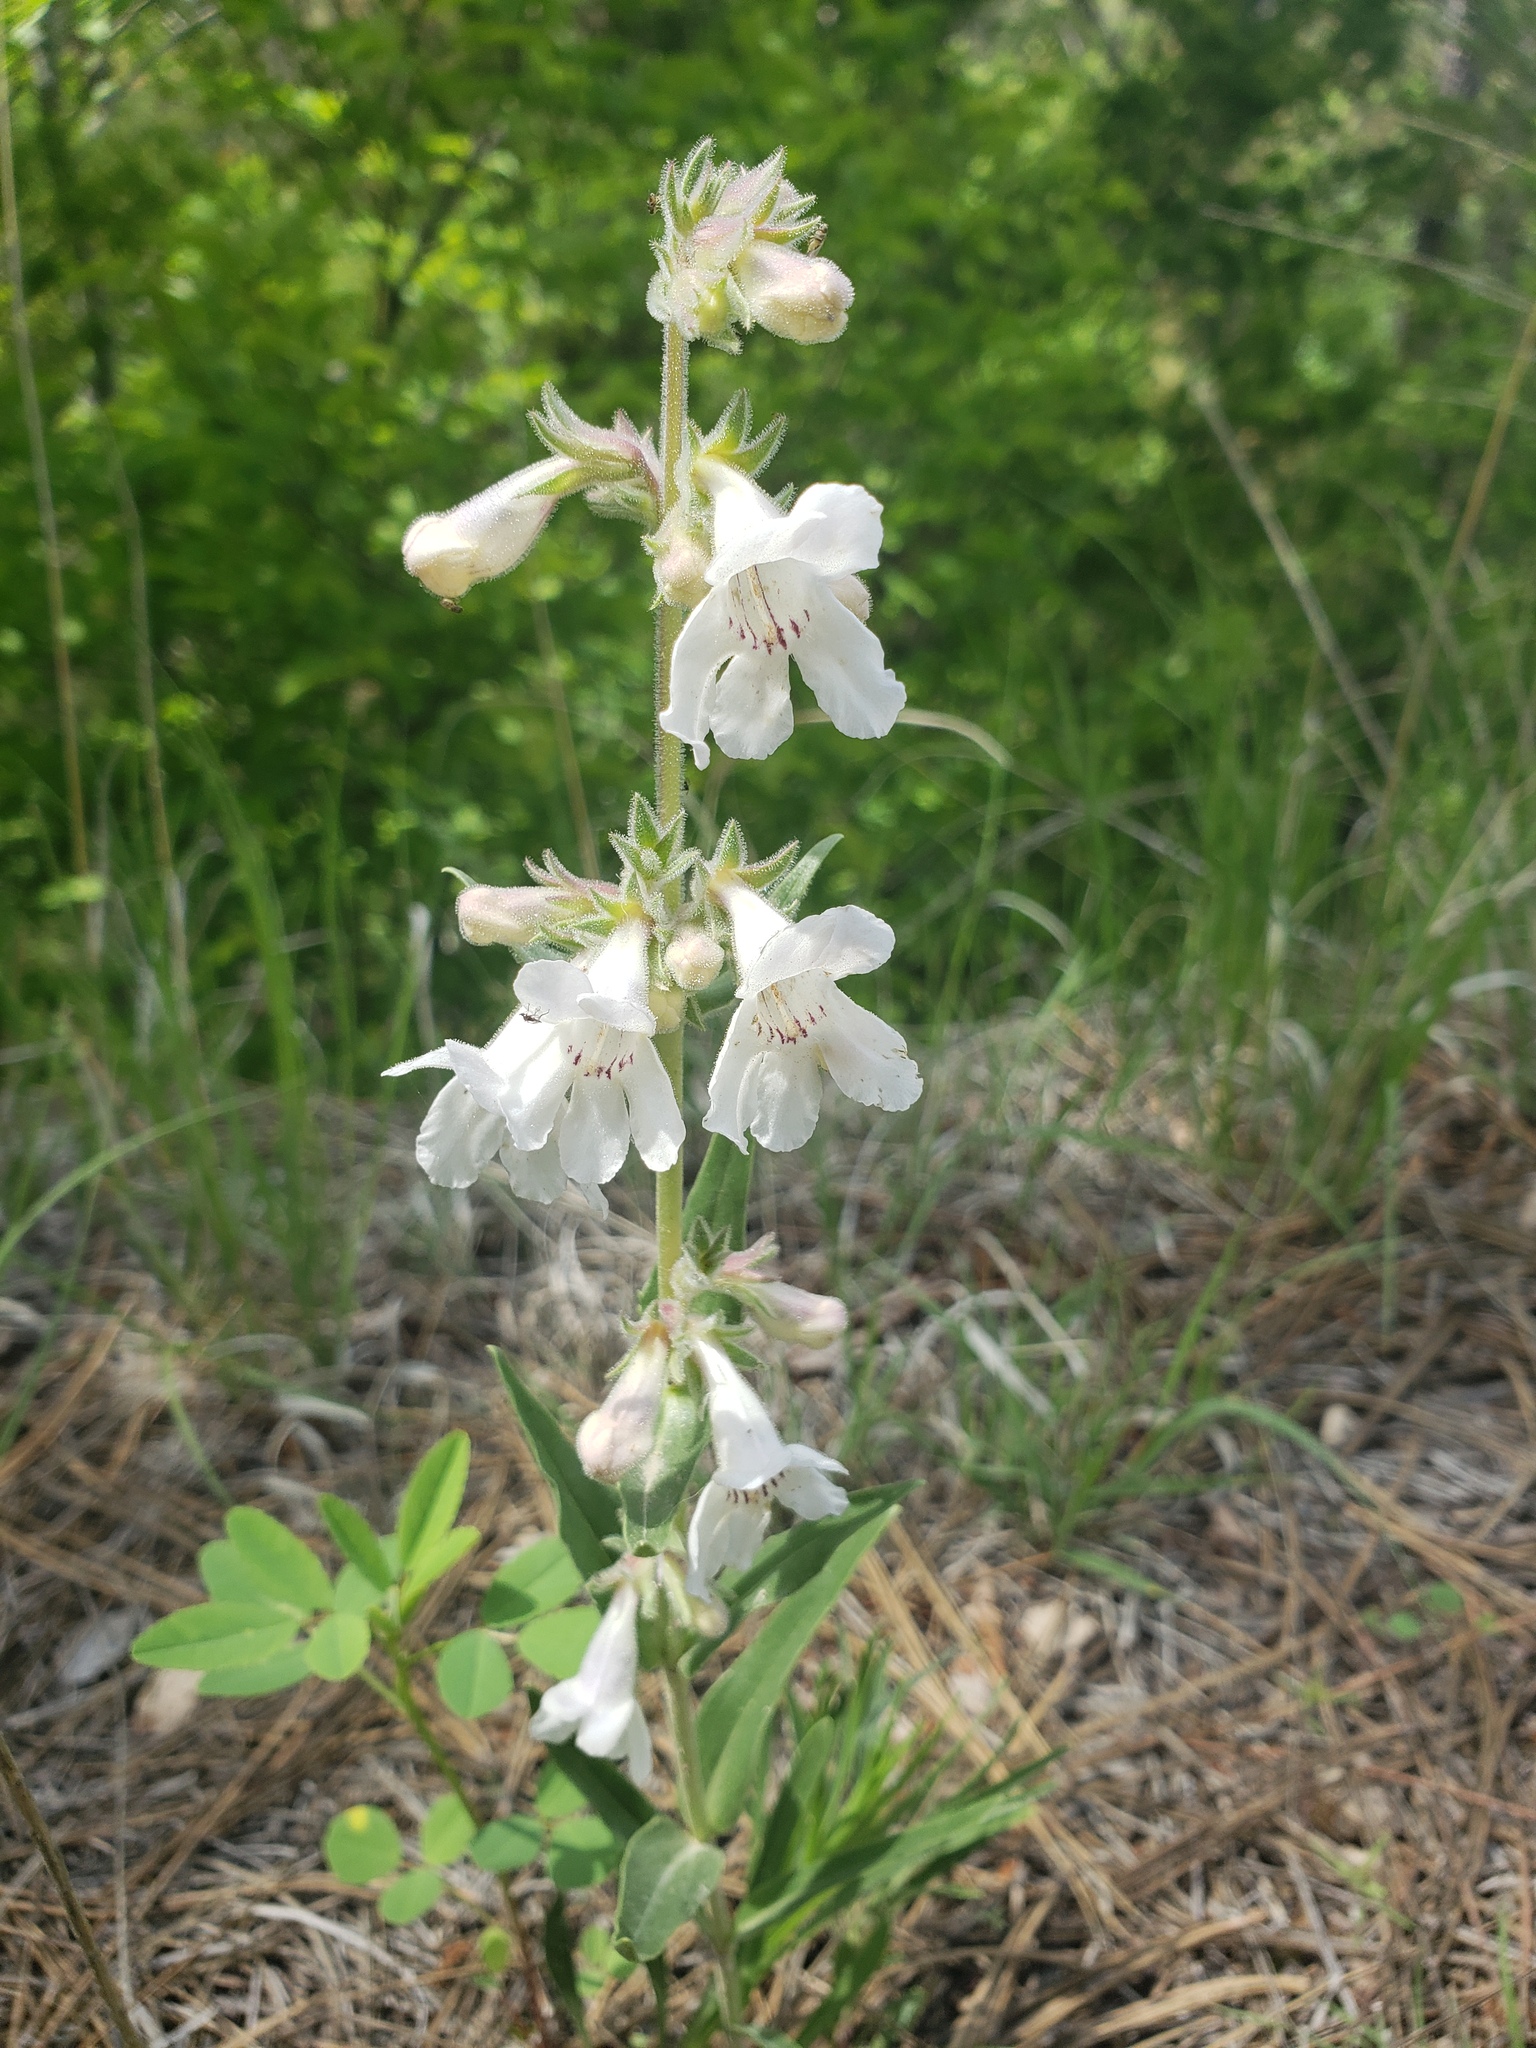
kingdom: Plantae
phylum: Tracheophyta
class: Magnoliopsida
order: Lamiales
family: Plantaginaceae
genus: Penstemon
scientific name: Penstemon albidus
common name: White beardtongue
